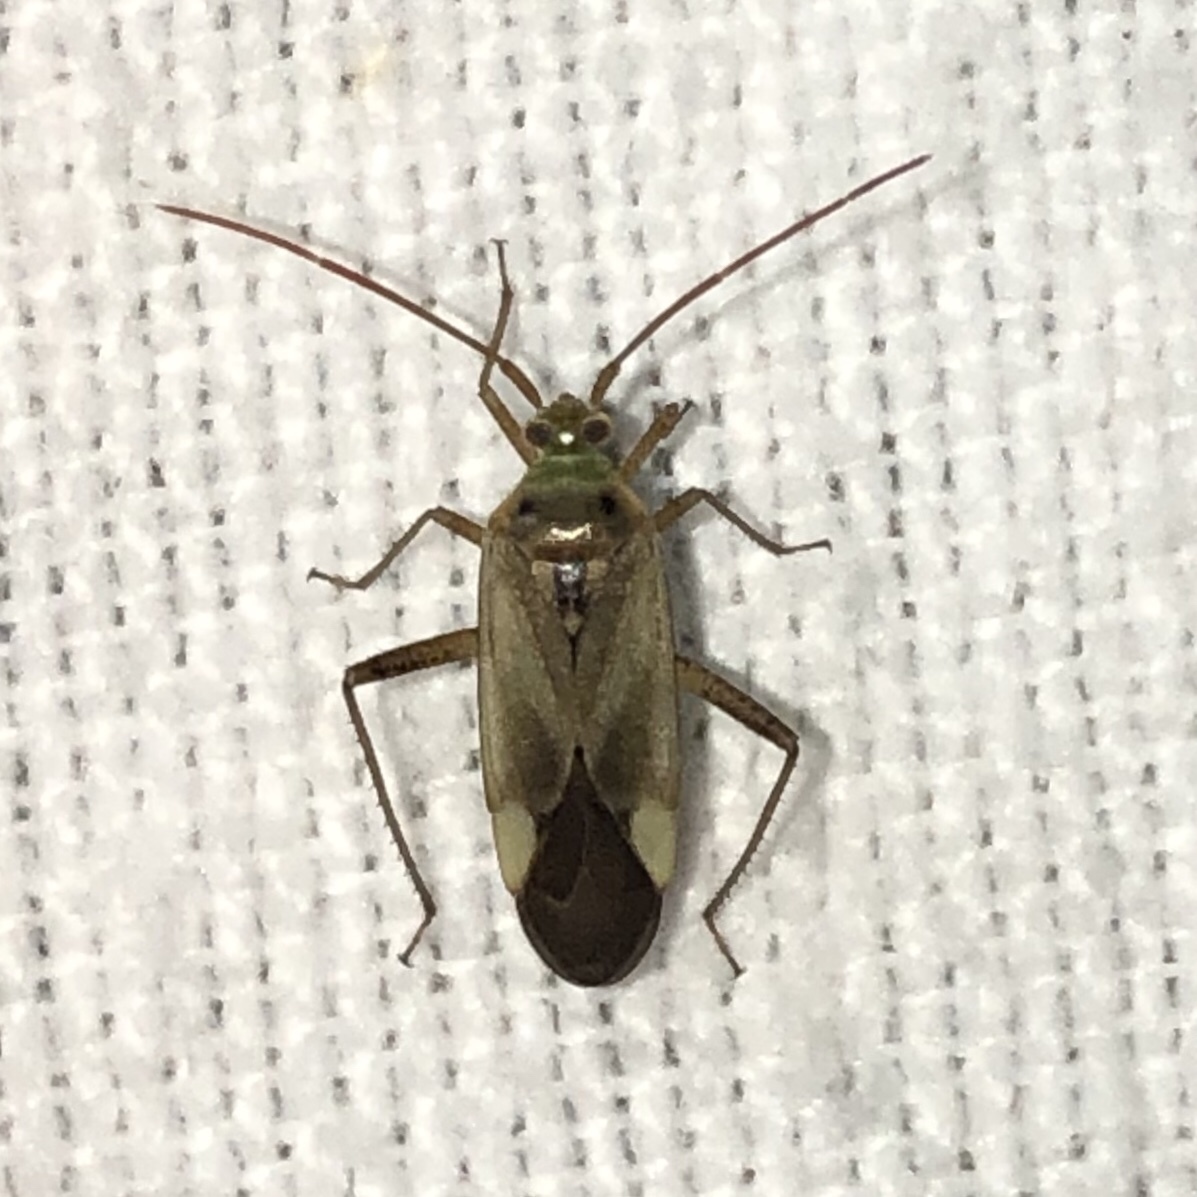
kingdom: Animalia
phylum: Arthropoda
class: Insecta
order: Hemiptera
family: Miridae
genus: Adelphocoris
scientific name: Adelphocoris lineolatus
